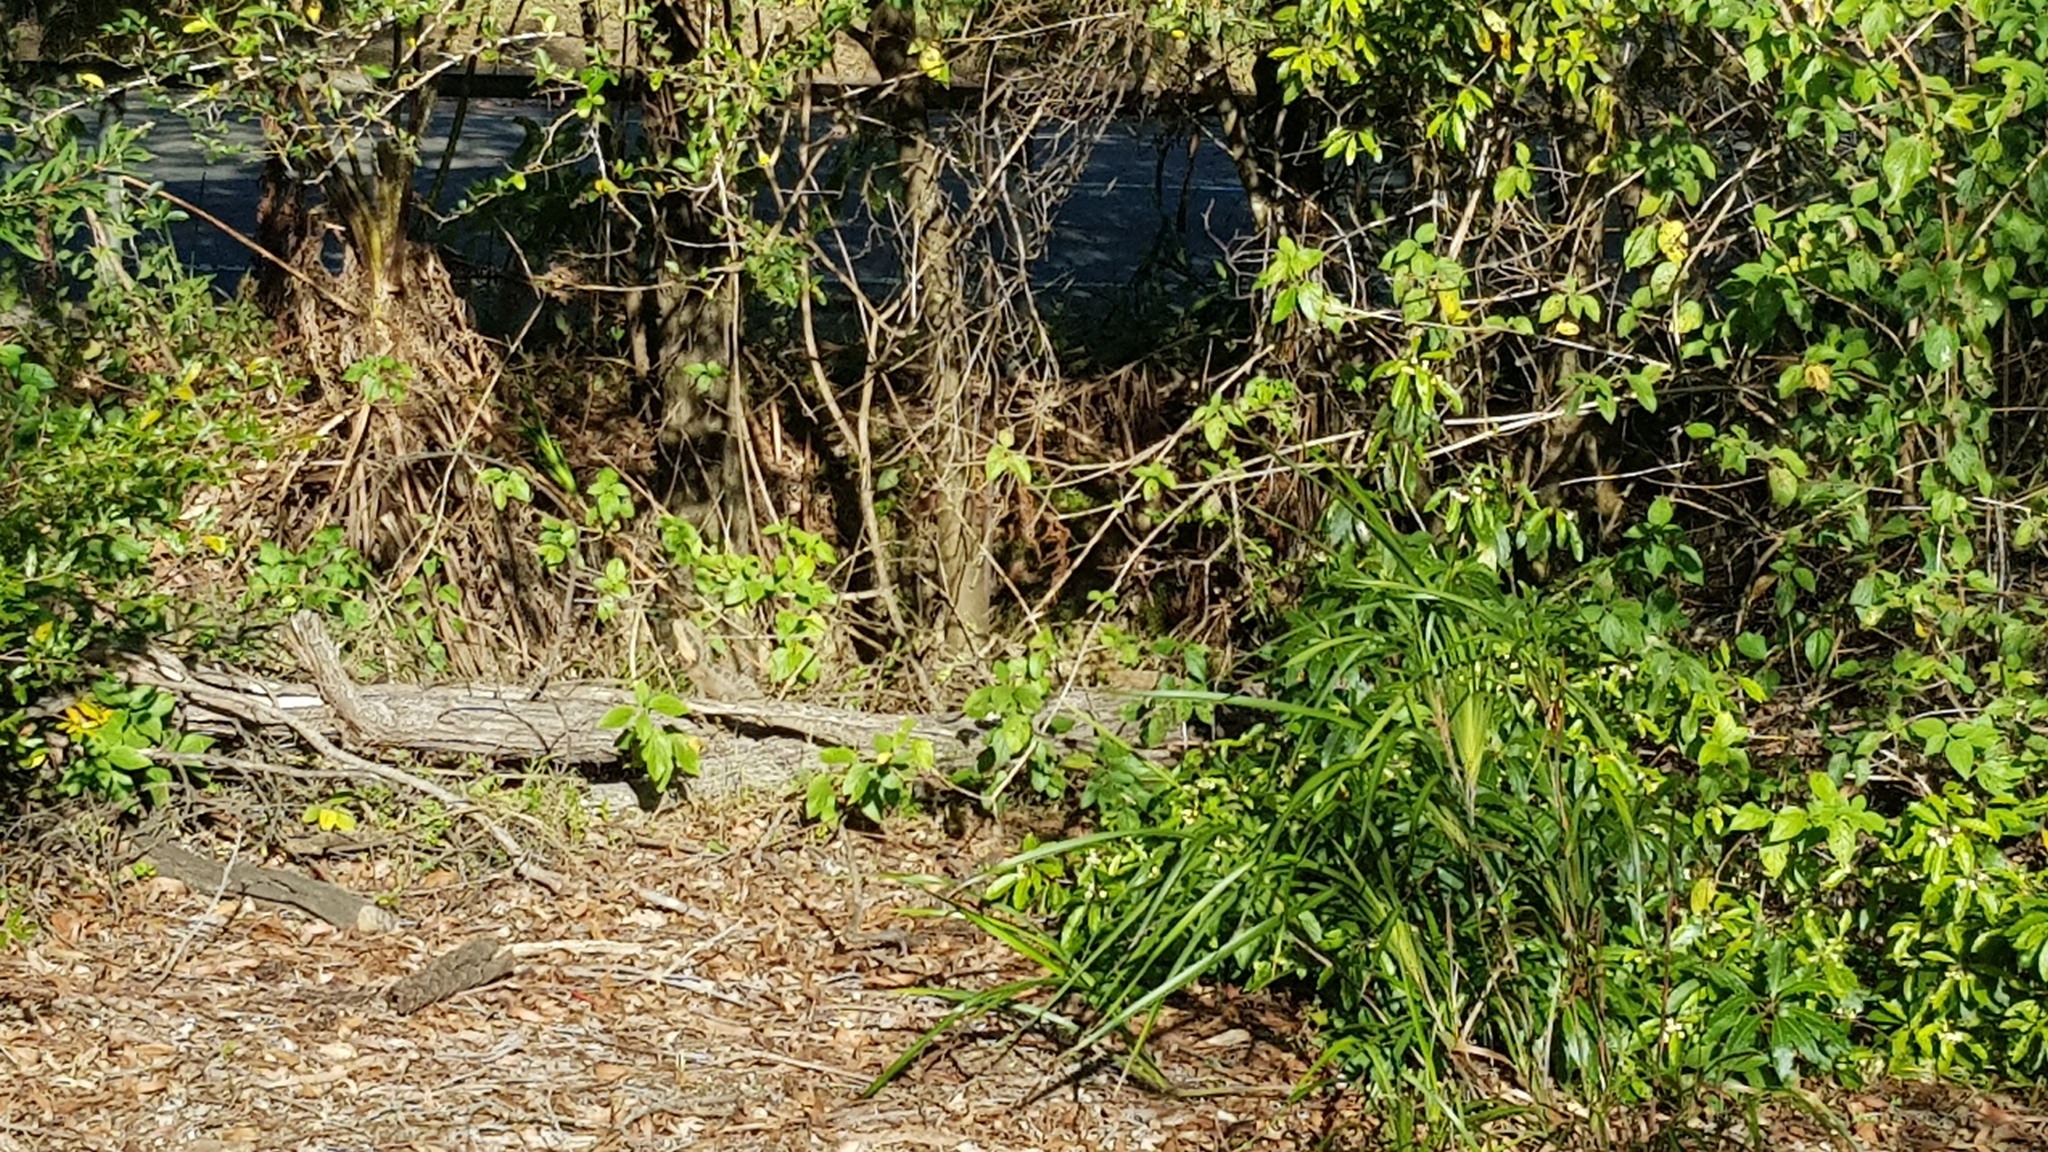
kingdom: Animalia
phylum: Chordata
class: Squamata
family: Agamidae
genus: Intellagama
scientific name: Intellagama lesueurii
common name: Eastern water dragon
